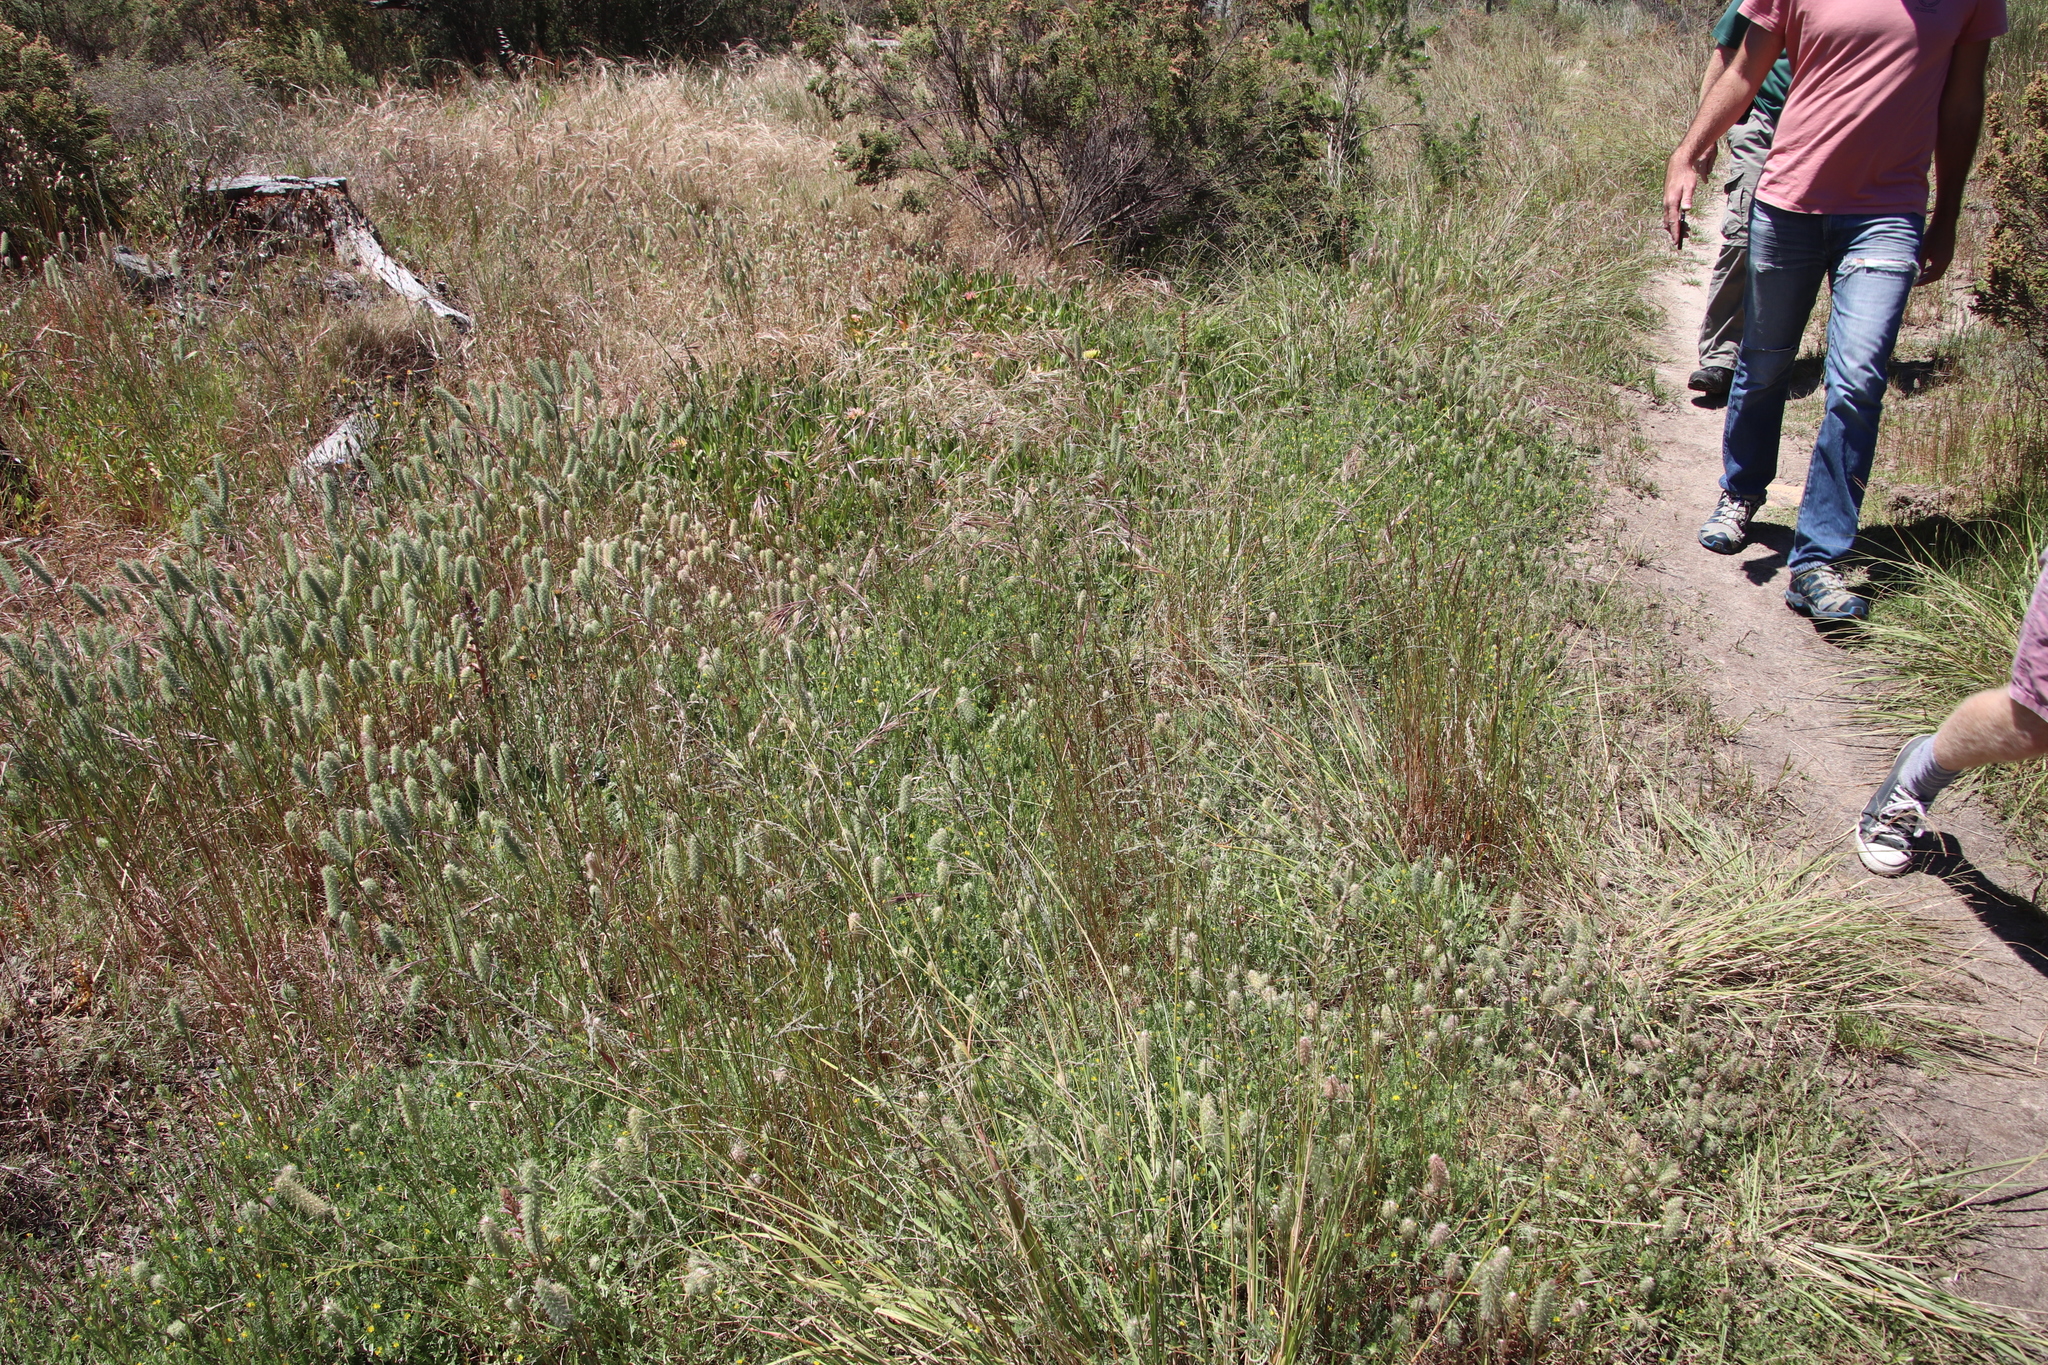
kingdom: Plantae
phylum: Tracheophyta
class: Magnoliopsida
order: Fabales
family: Fabaceae
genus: Ornithopus
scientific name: Ornithopus compressus
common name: Yellow serradella
